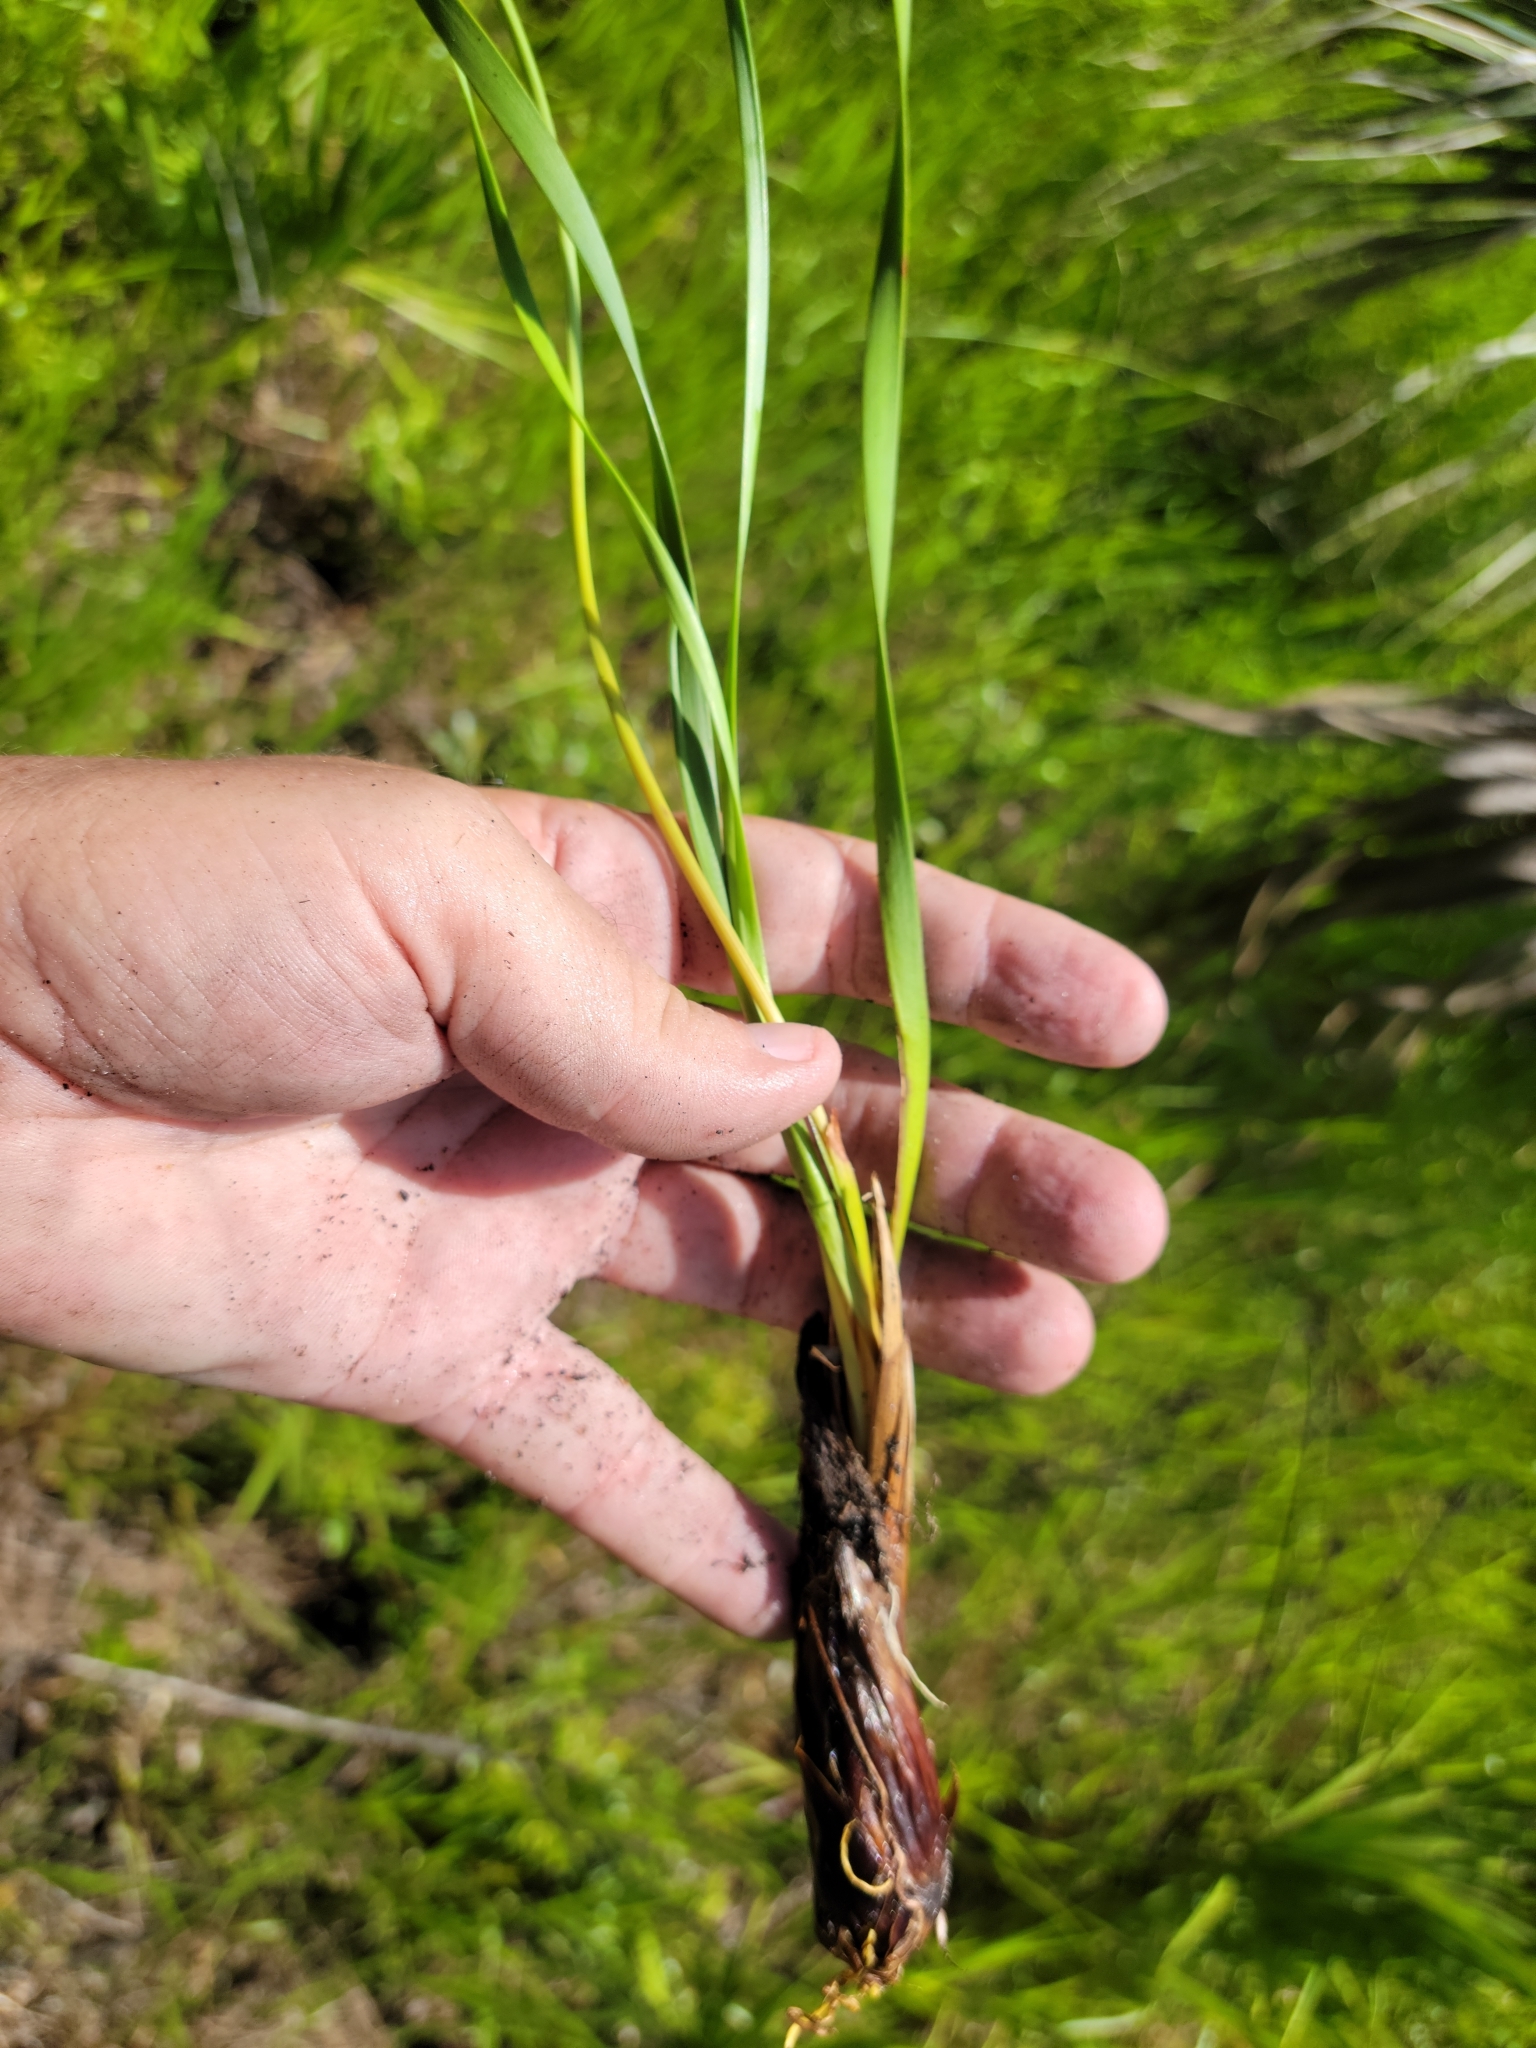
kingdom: Plantae
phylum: Tracheophyta
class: Liliopsida
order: Poales
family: Xyridaceae
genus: Xyris
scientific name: Xyris caroliniana
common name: Carolina yellow-eyed-grass
